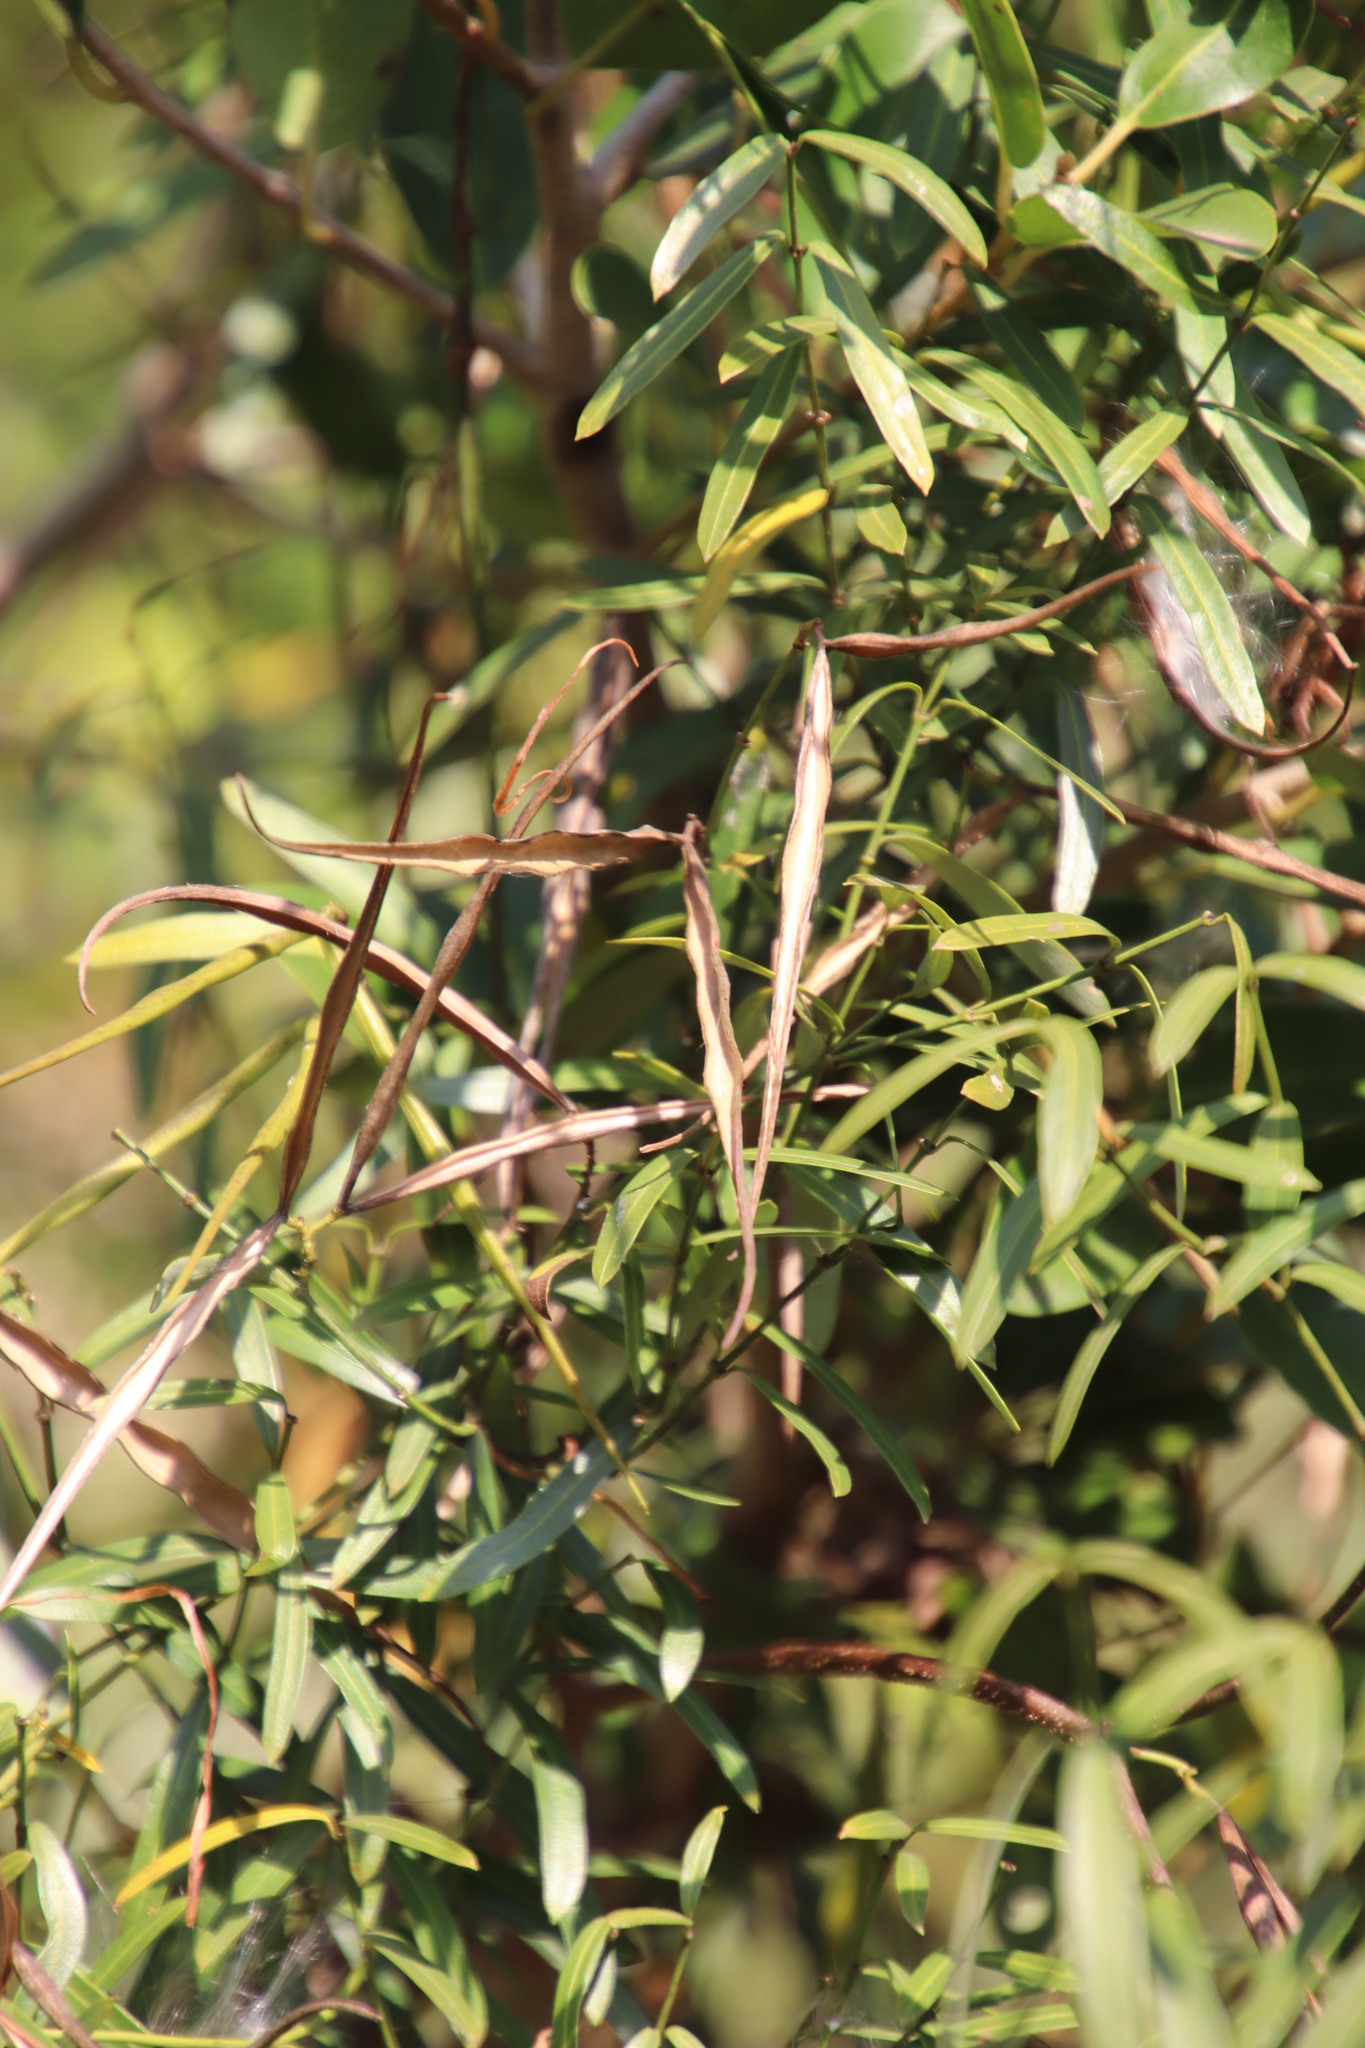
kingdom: Plantae
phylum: Tracheophyta
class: Magnoliopsida
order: Gentianales
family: Apocynaceae
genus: Secamone
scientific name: Secamone filiformis
